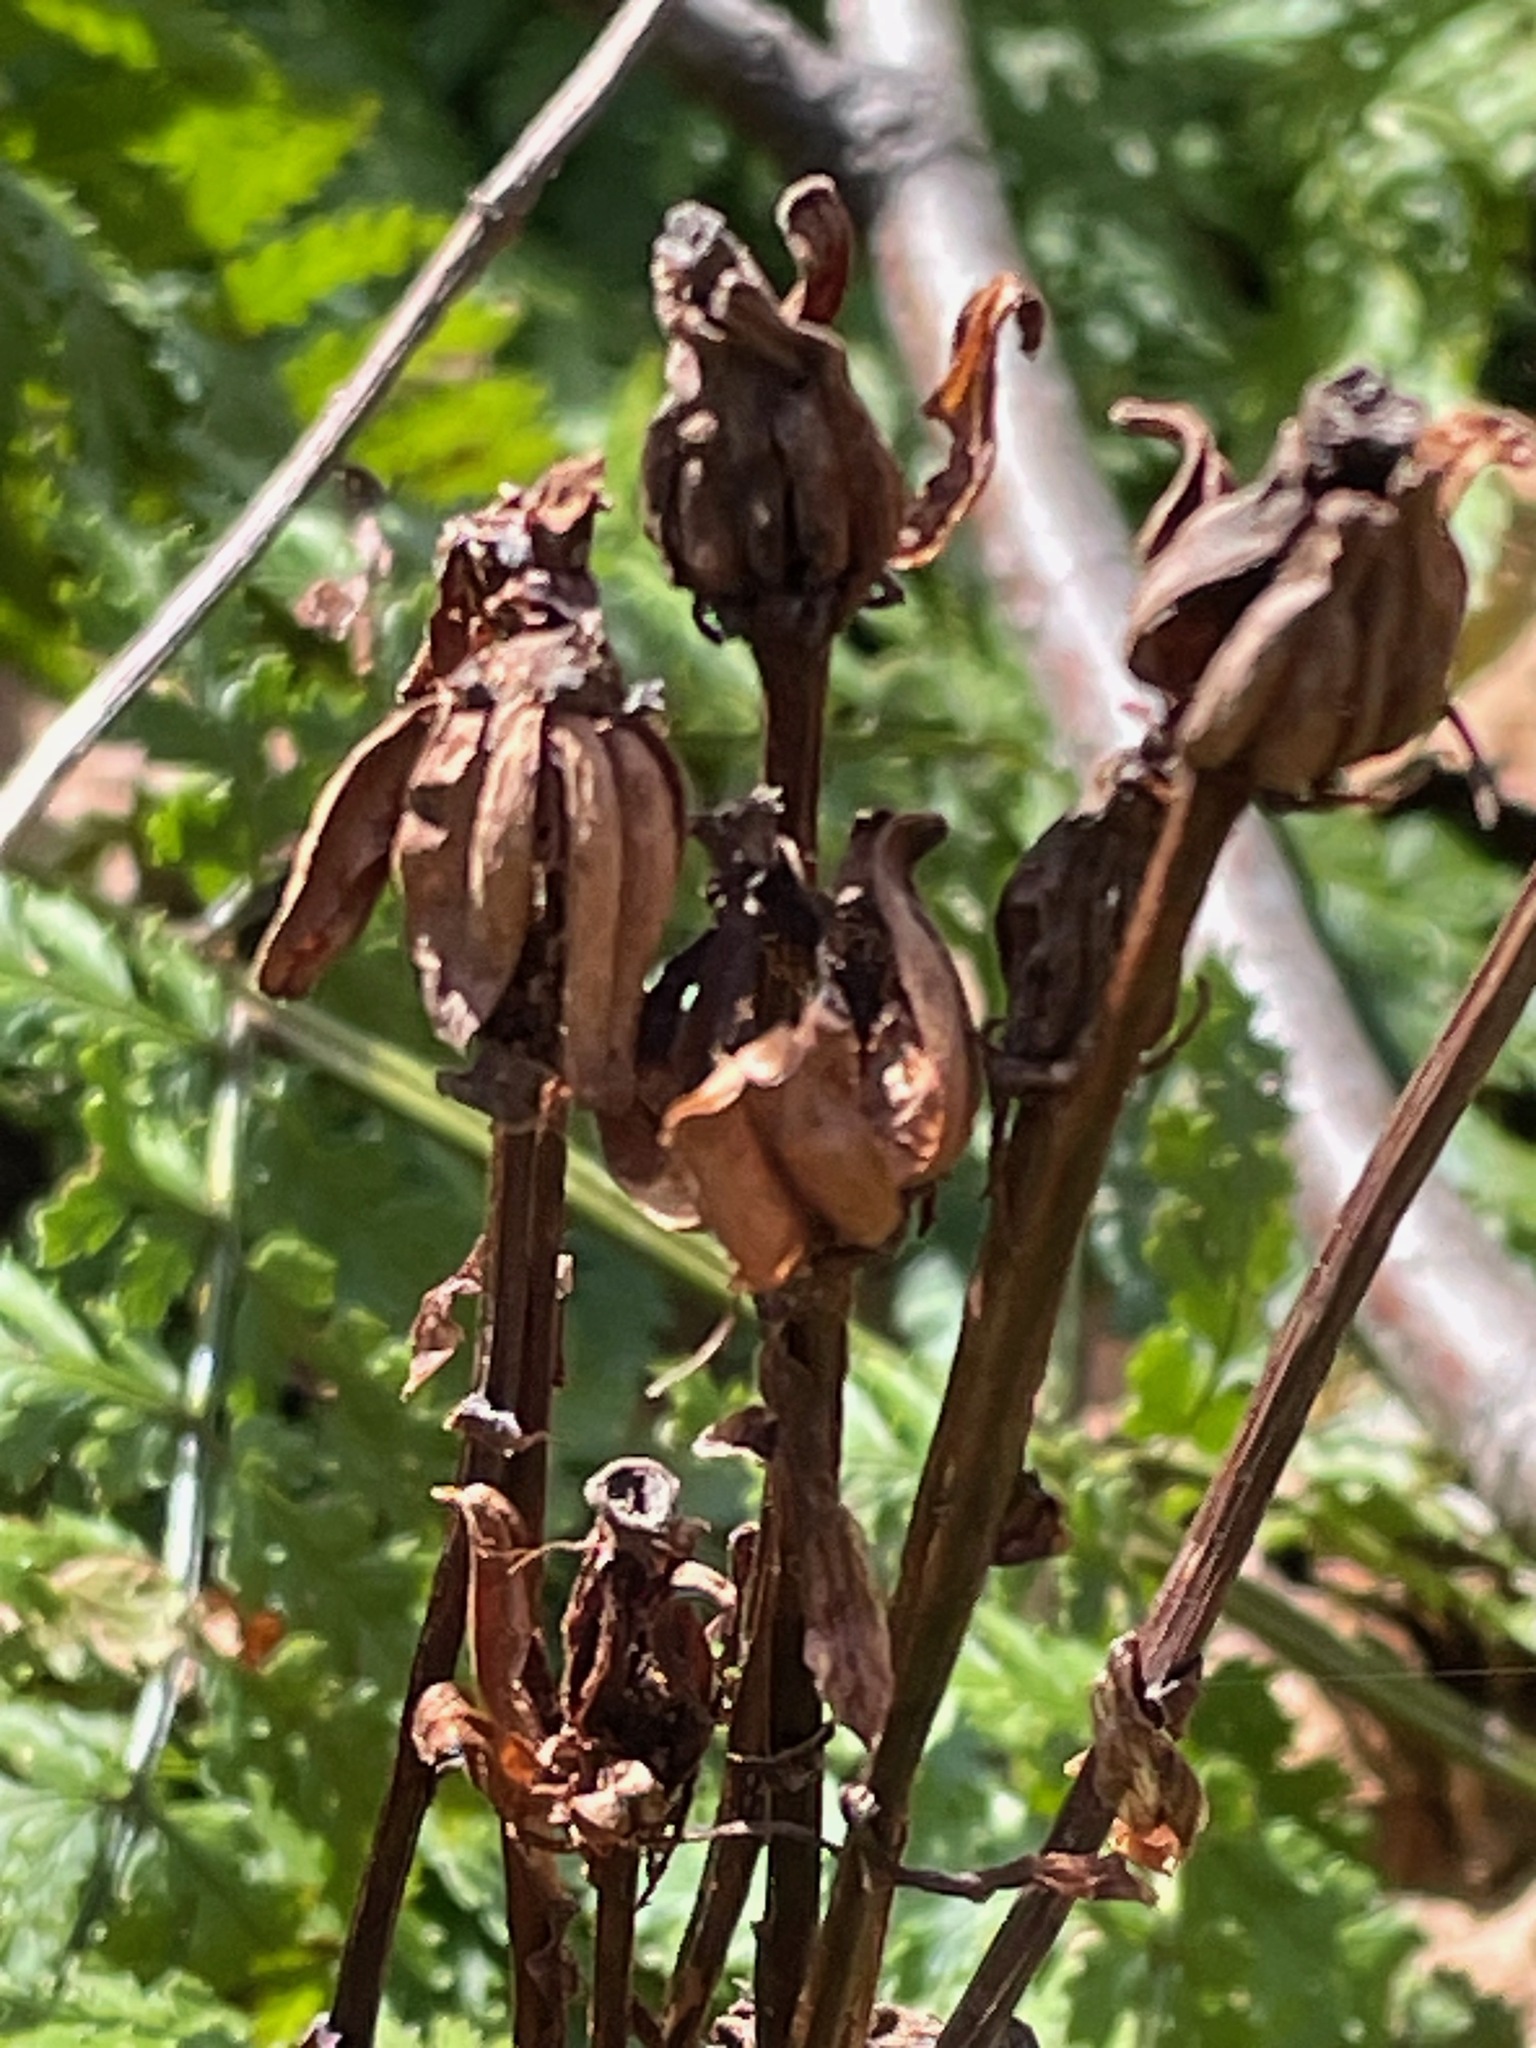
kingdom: Plantae
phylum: Tracheophyta
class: Magnoliopsida
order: Ericales
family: Ericaceae
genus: Monotropa
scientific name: Monotropa uniflora
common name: Convulsion root
